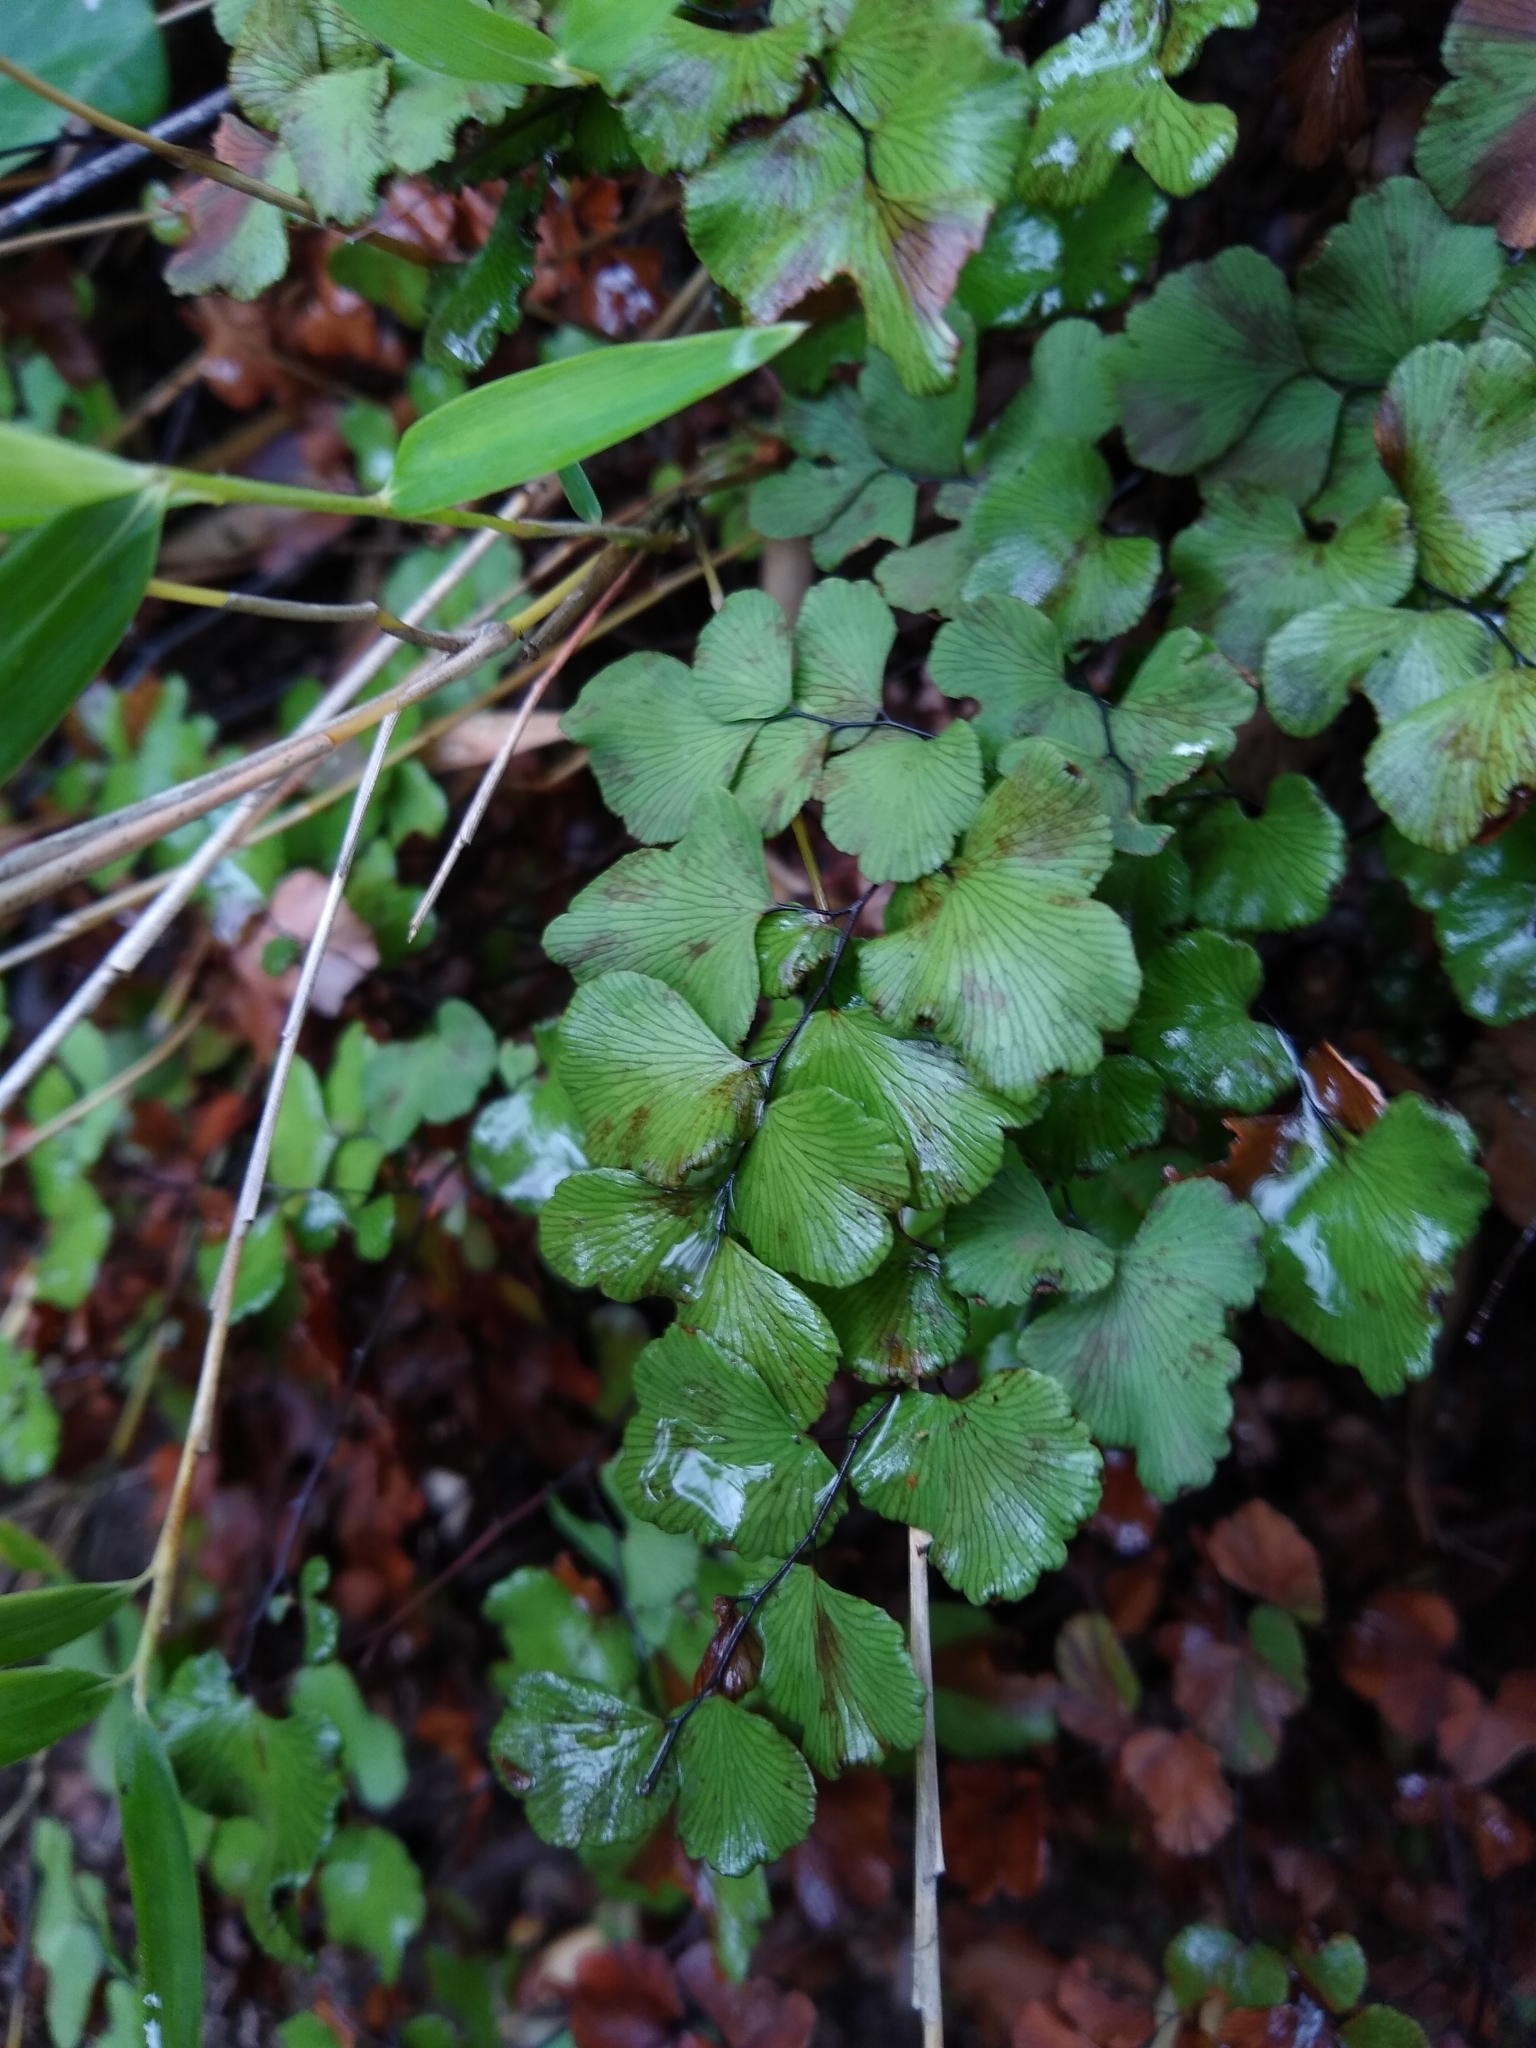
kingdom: Plantae
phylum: Tracheophyta
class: Polypodiopsida
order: Polypodiales
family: Pteridaceae
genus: Adiantum
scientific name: Adiantum chilense
